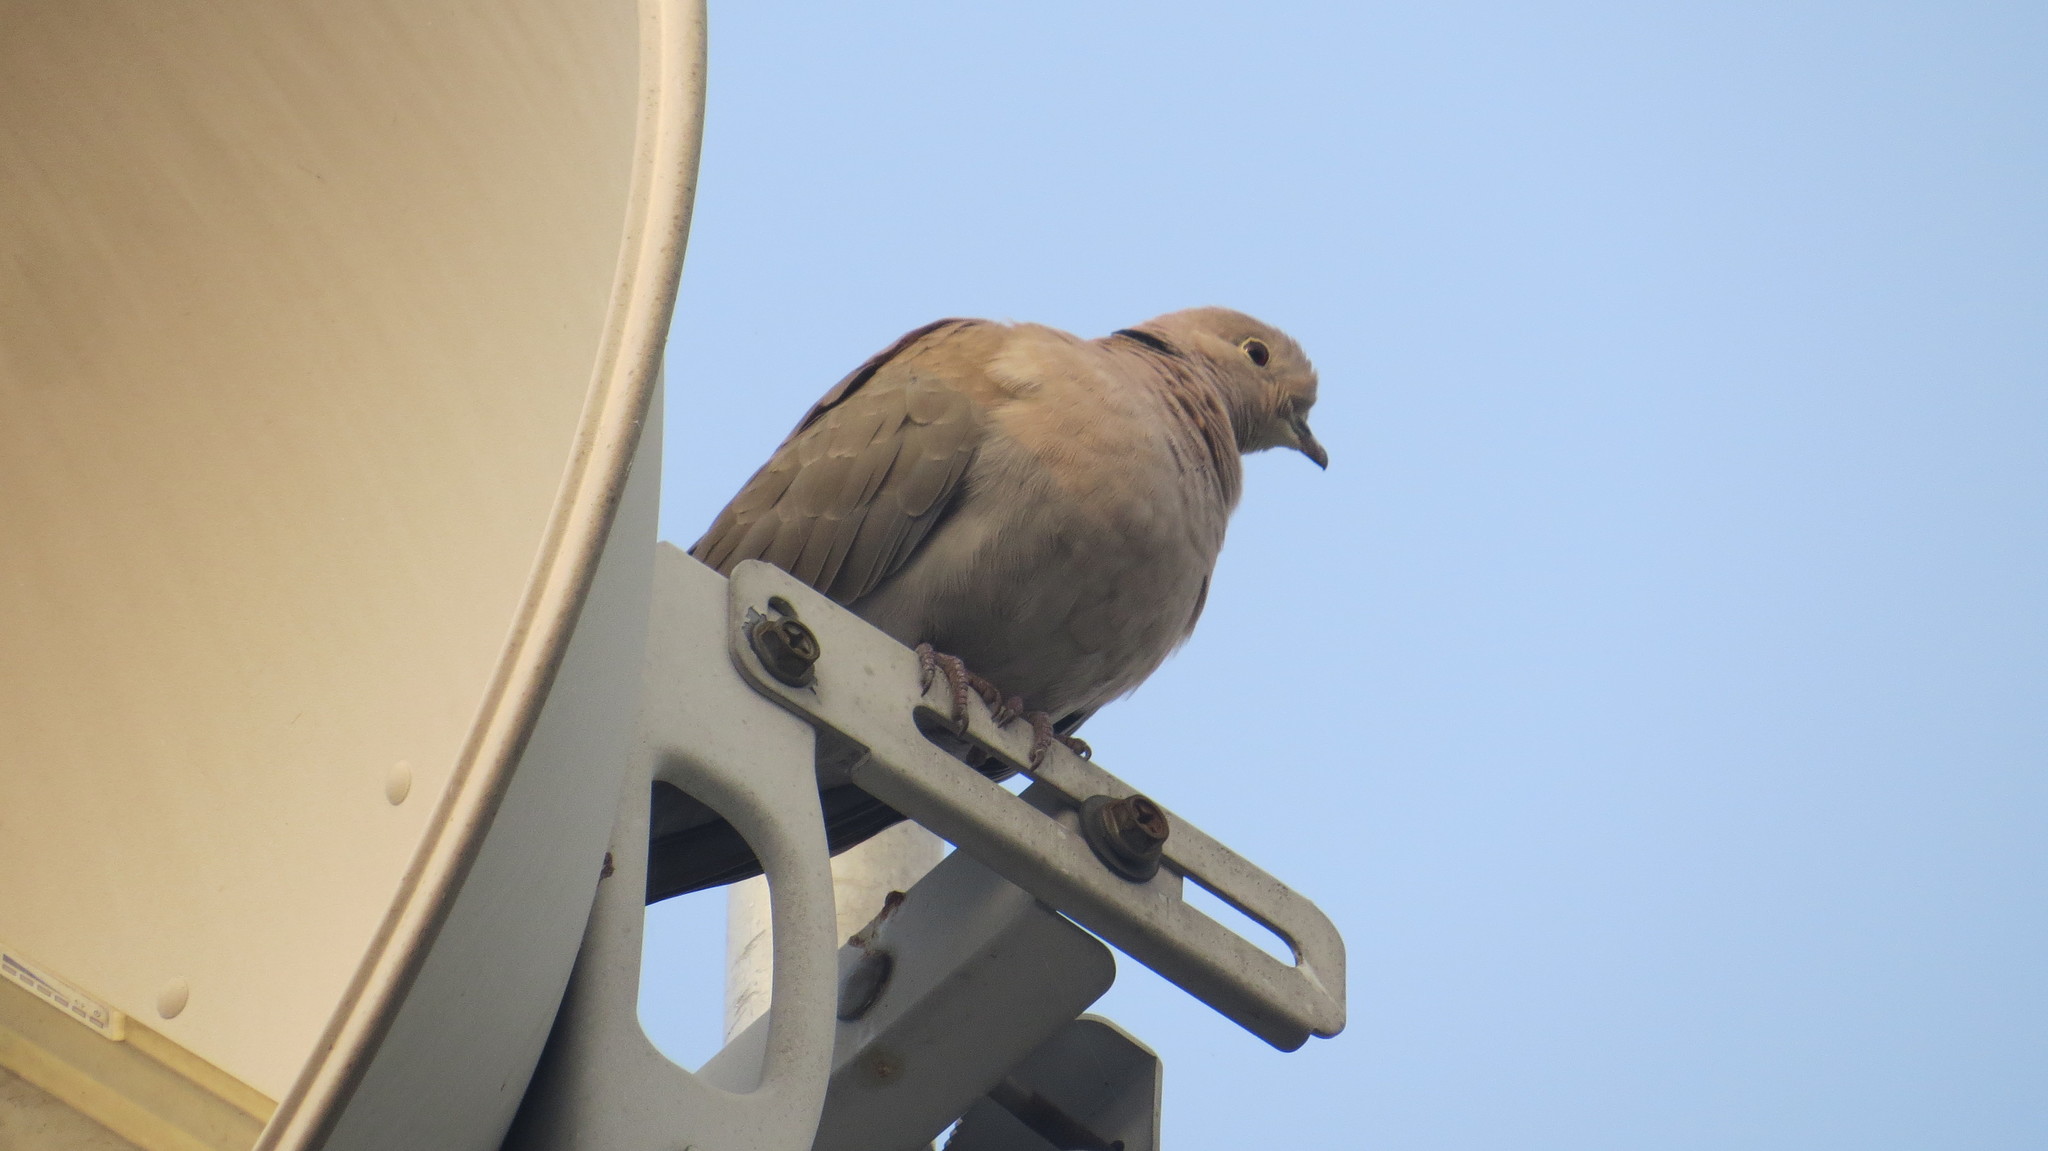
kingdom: Animalia
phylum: Chordata
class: Aves
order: Columbiformes
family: Columbidae
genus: Streptopelia
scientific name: Streptopelia decaocto
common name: Eurasian collared dove
